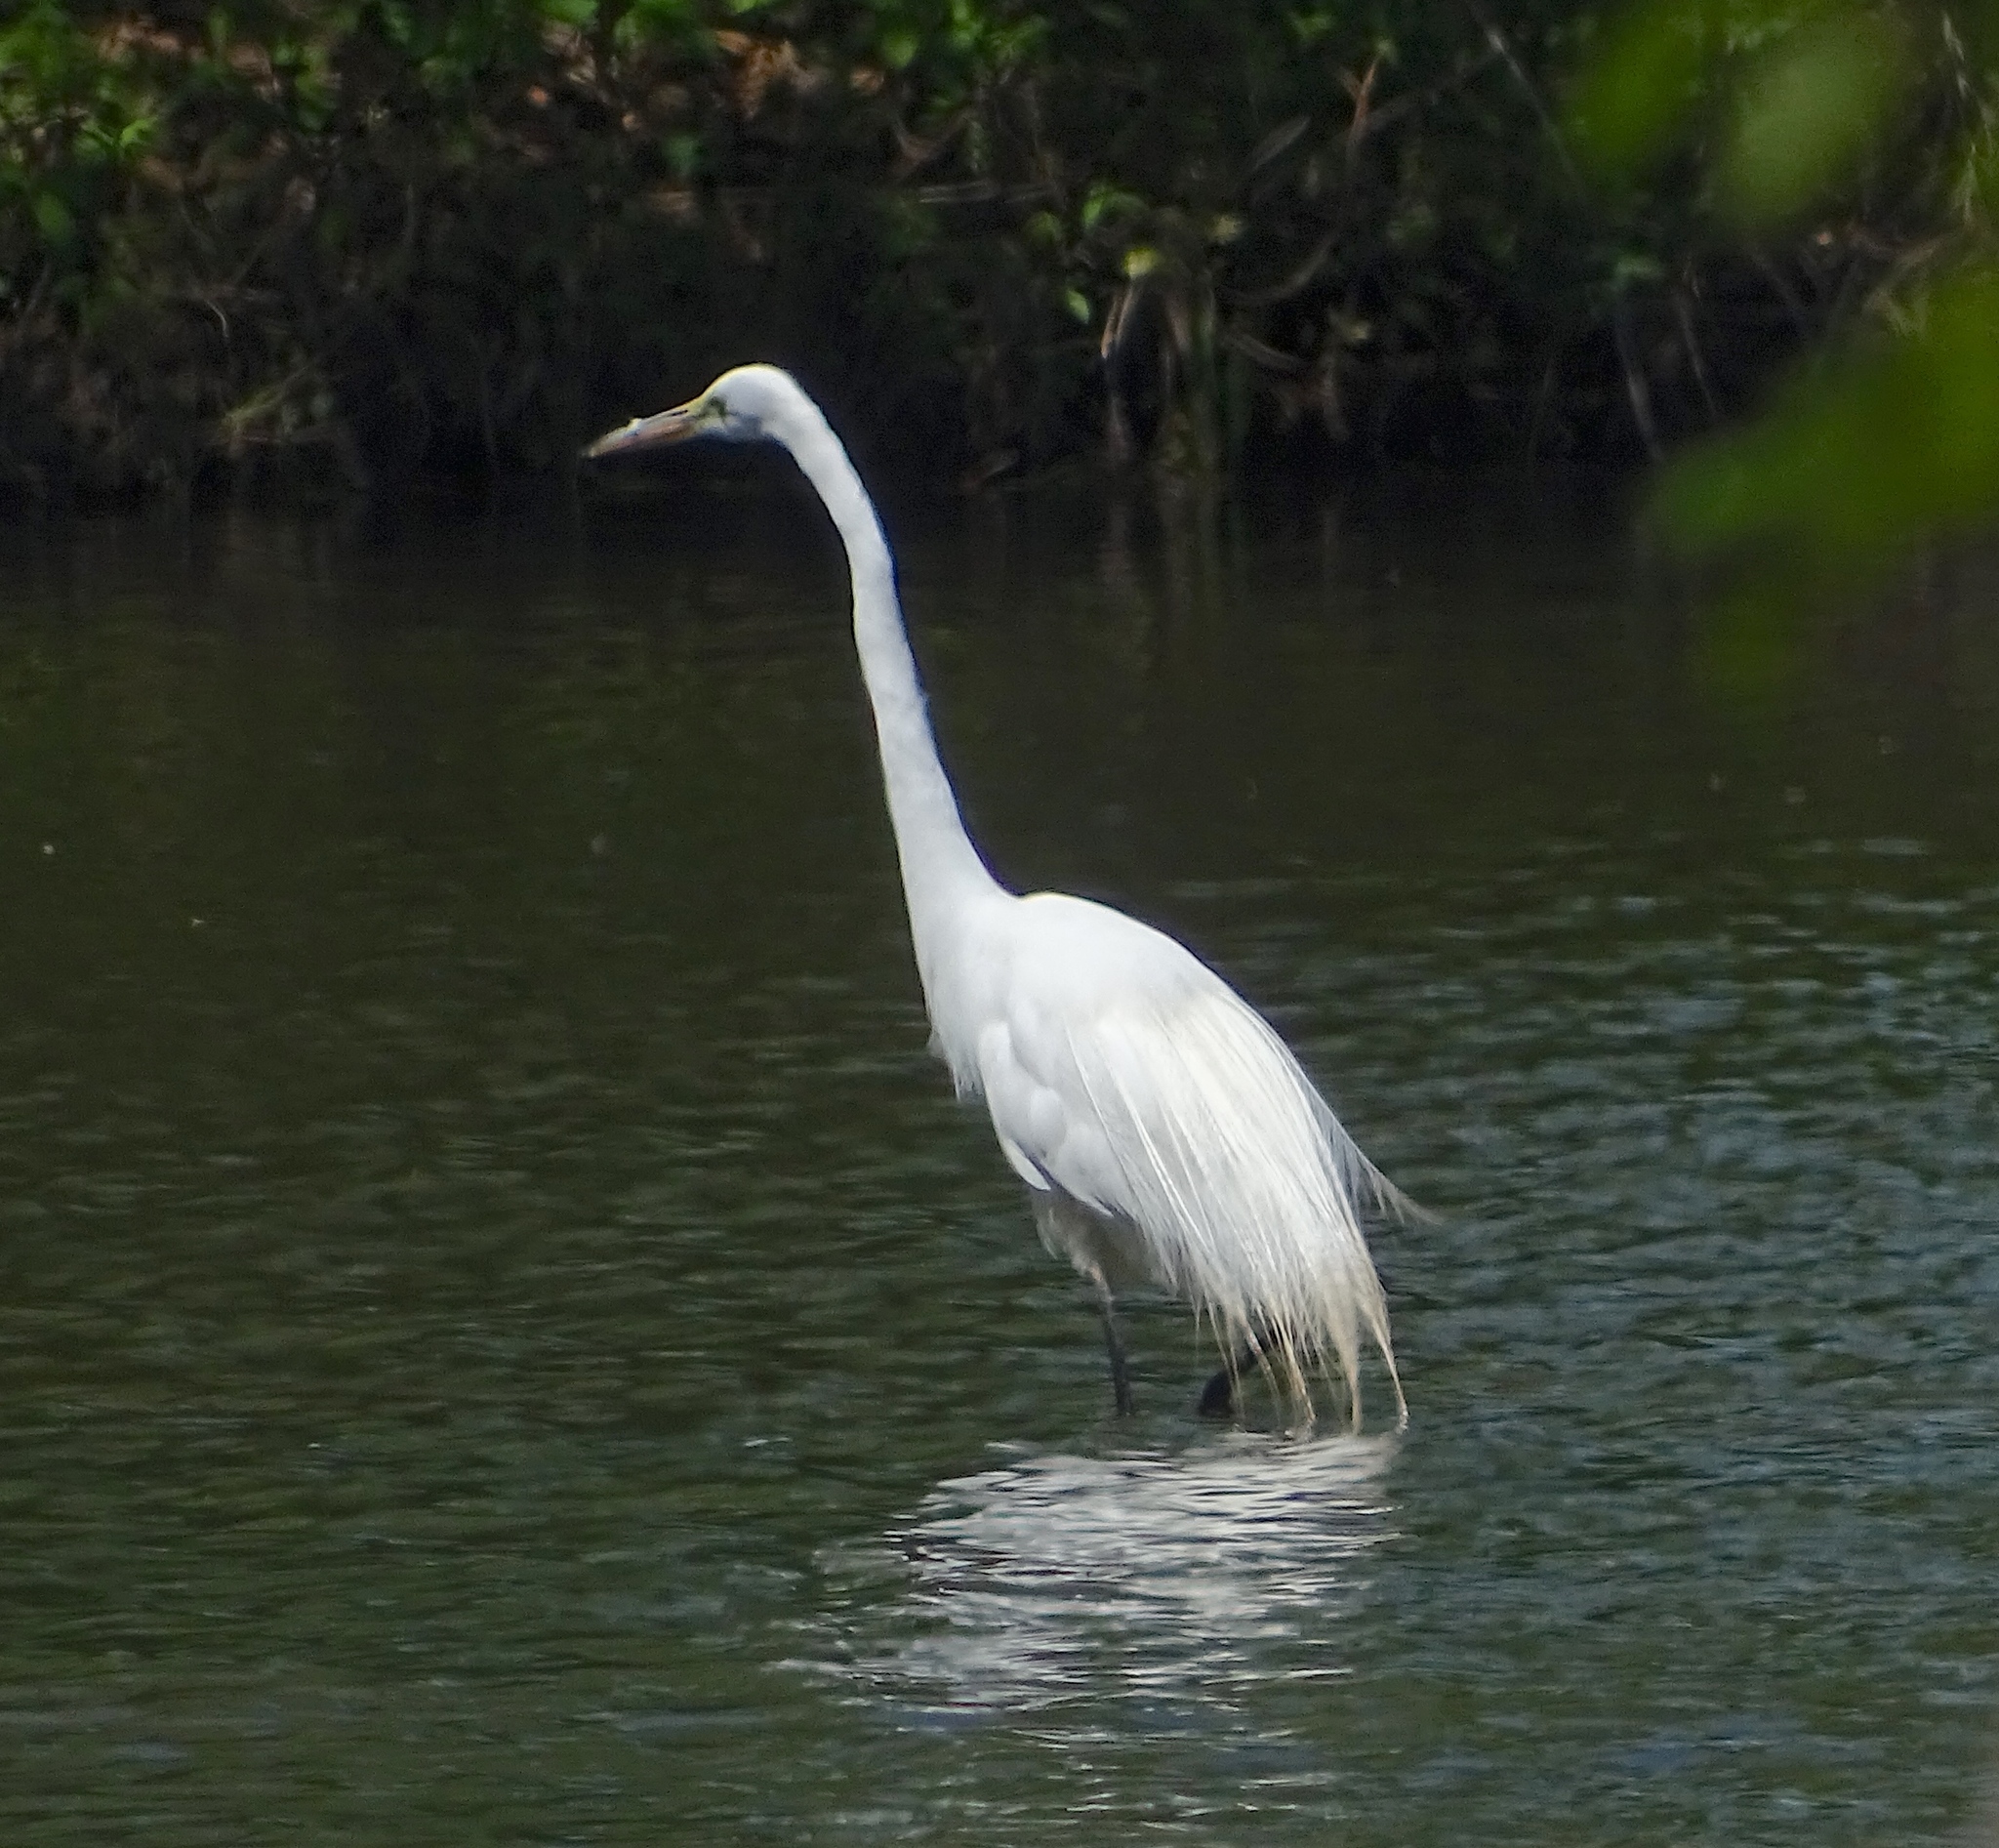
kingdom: Animalia
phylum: Chordata
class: Aves
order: Pelecaniformes
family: Ardeidae
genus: Ardea
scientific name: Ardea alba
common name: Great egret
